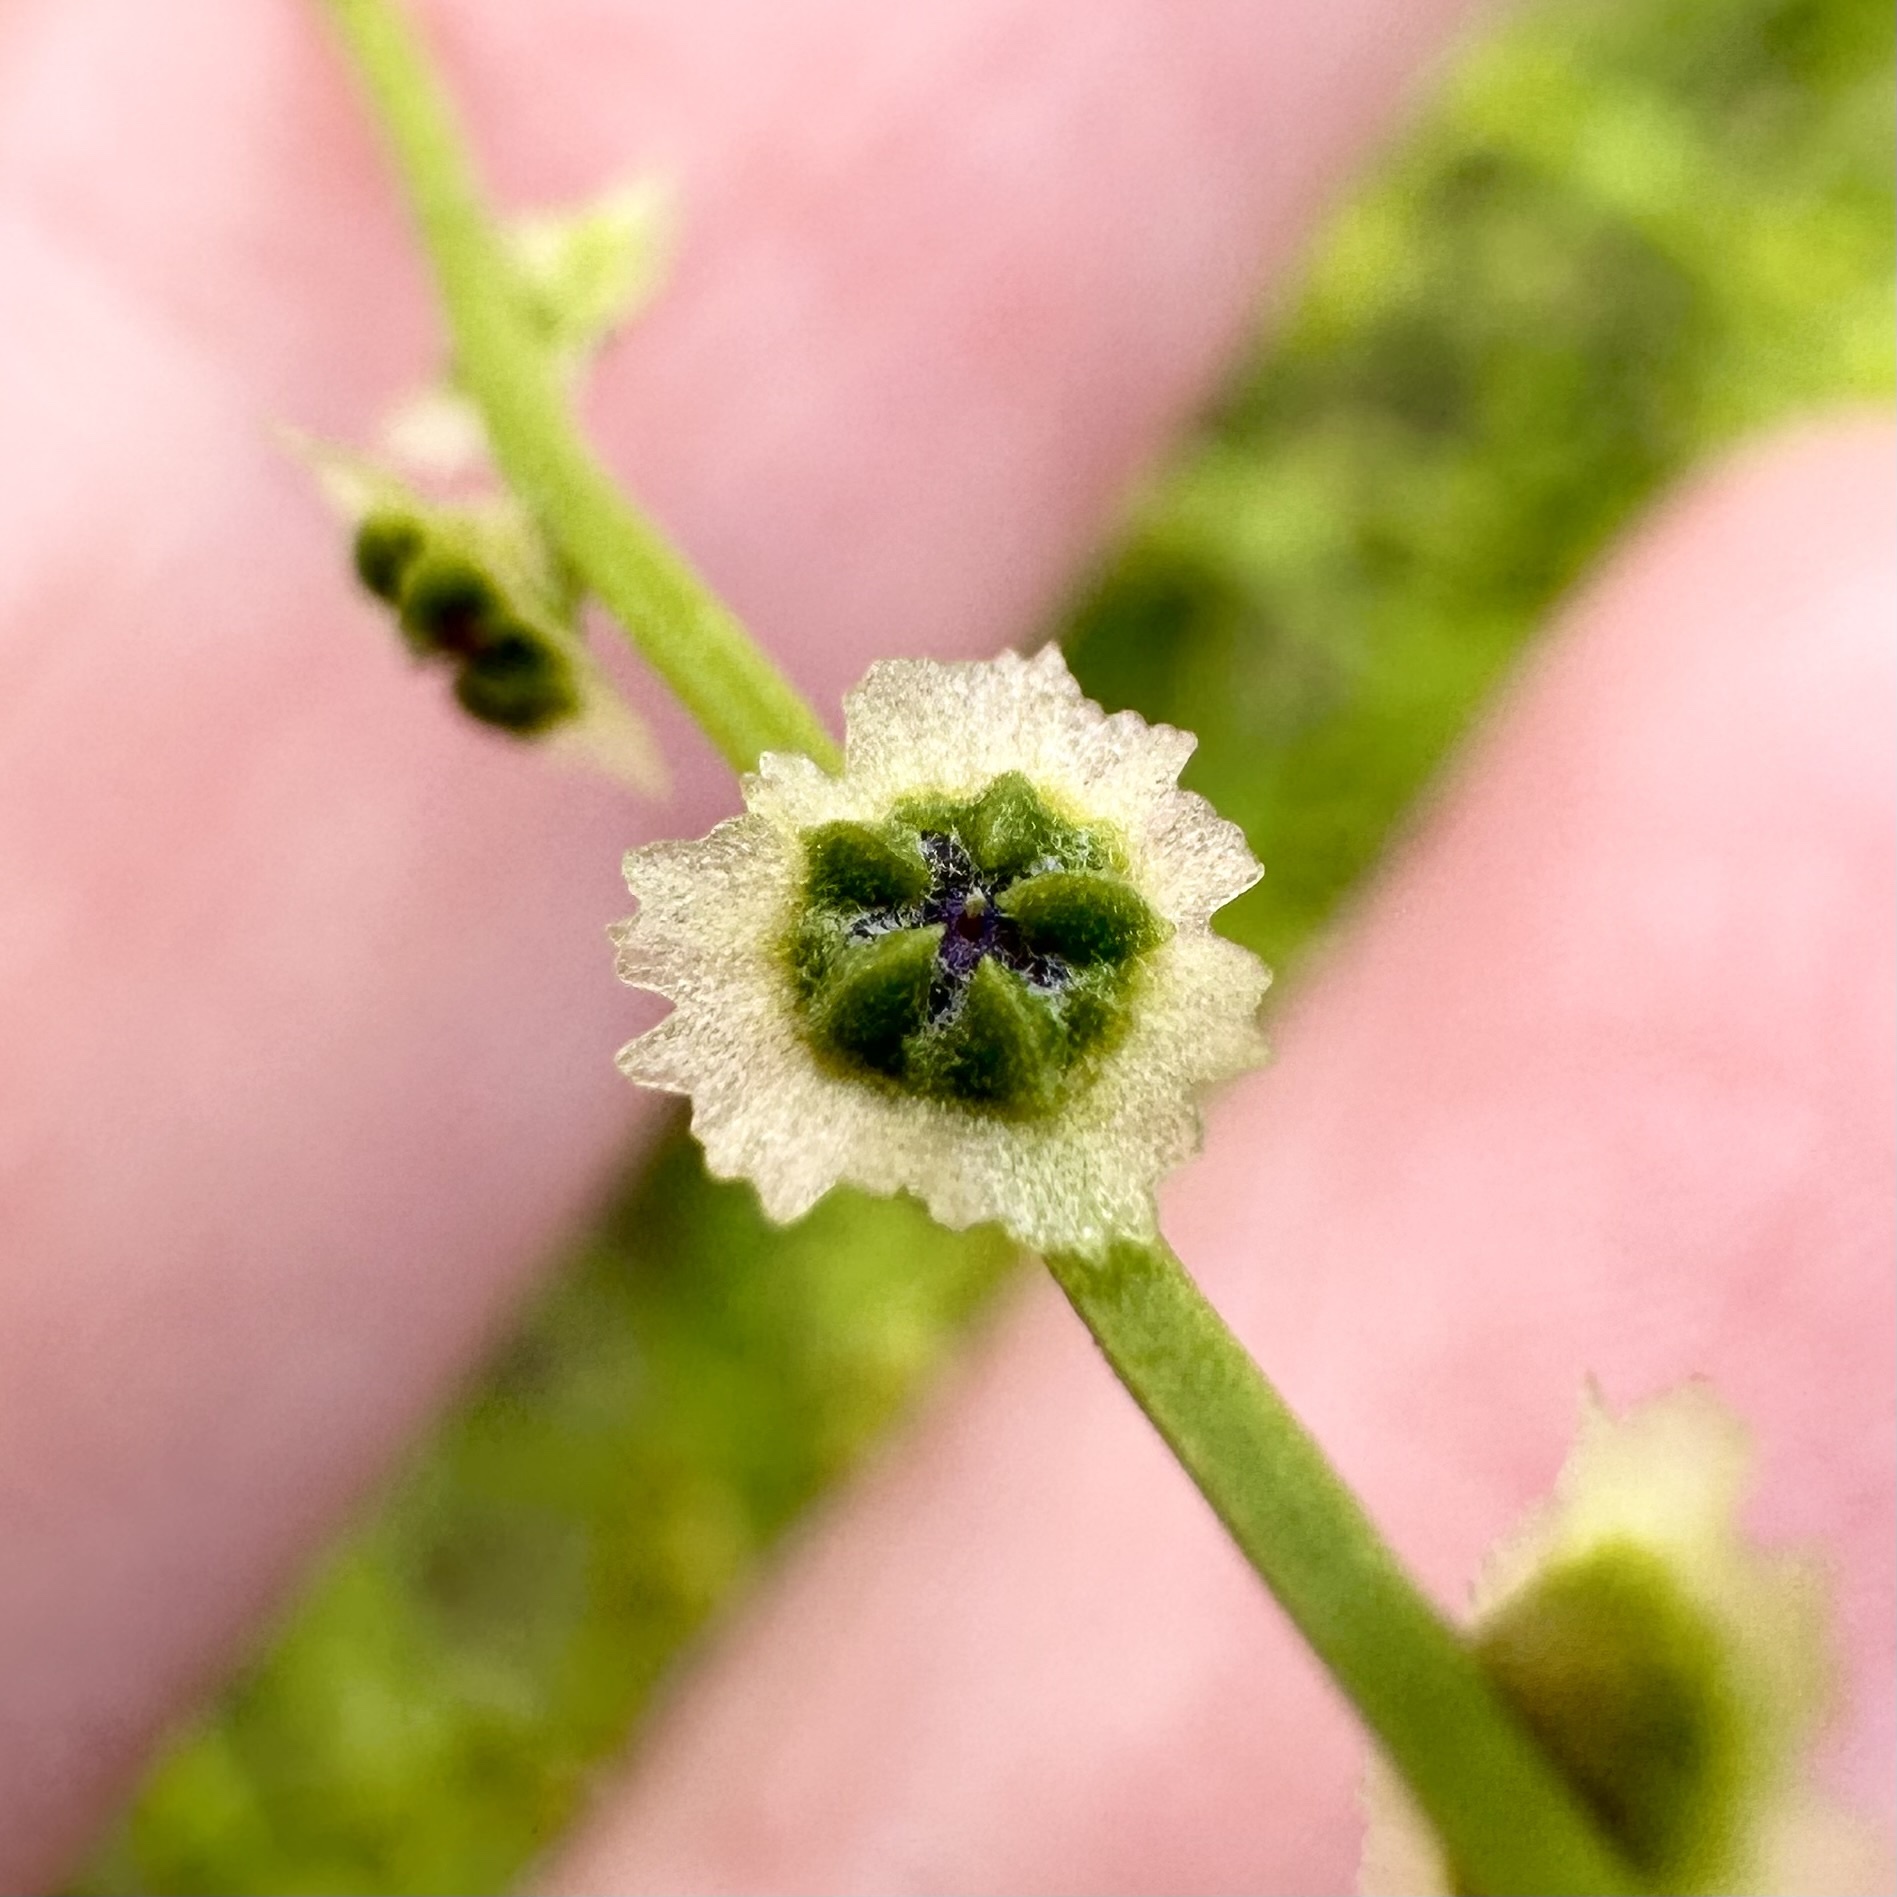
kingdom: Plantae
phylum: Tracheophyta
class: Magnoliopsida
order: Caryophyllales
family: Amaranthaceae
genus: Dysphania
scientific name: Dysphania atriplicifolia
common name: Plains tumbleweed
